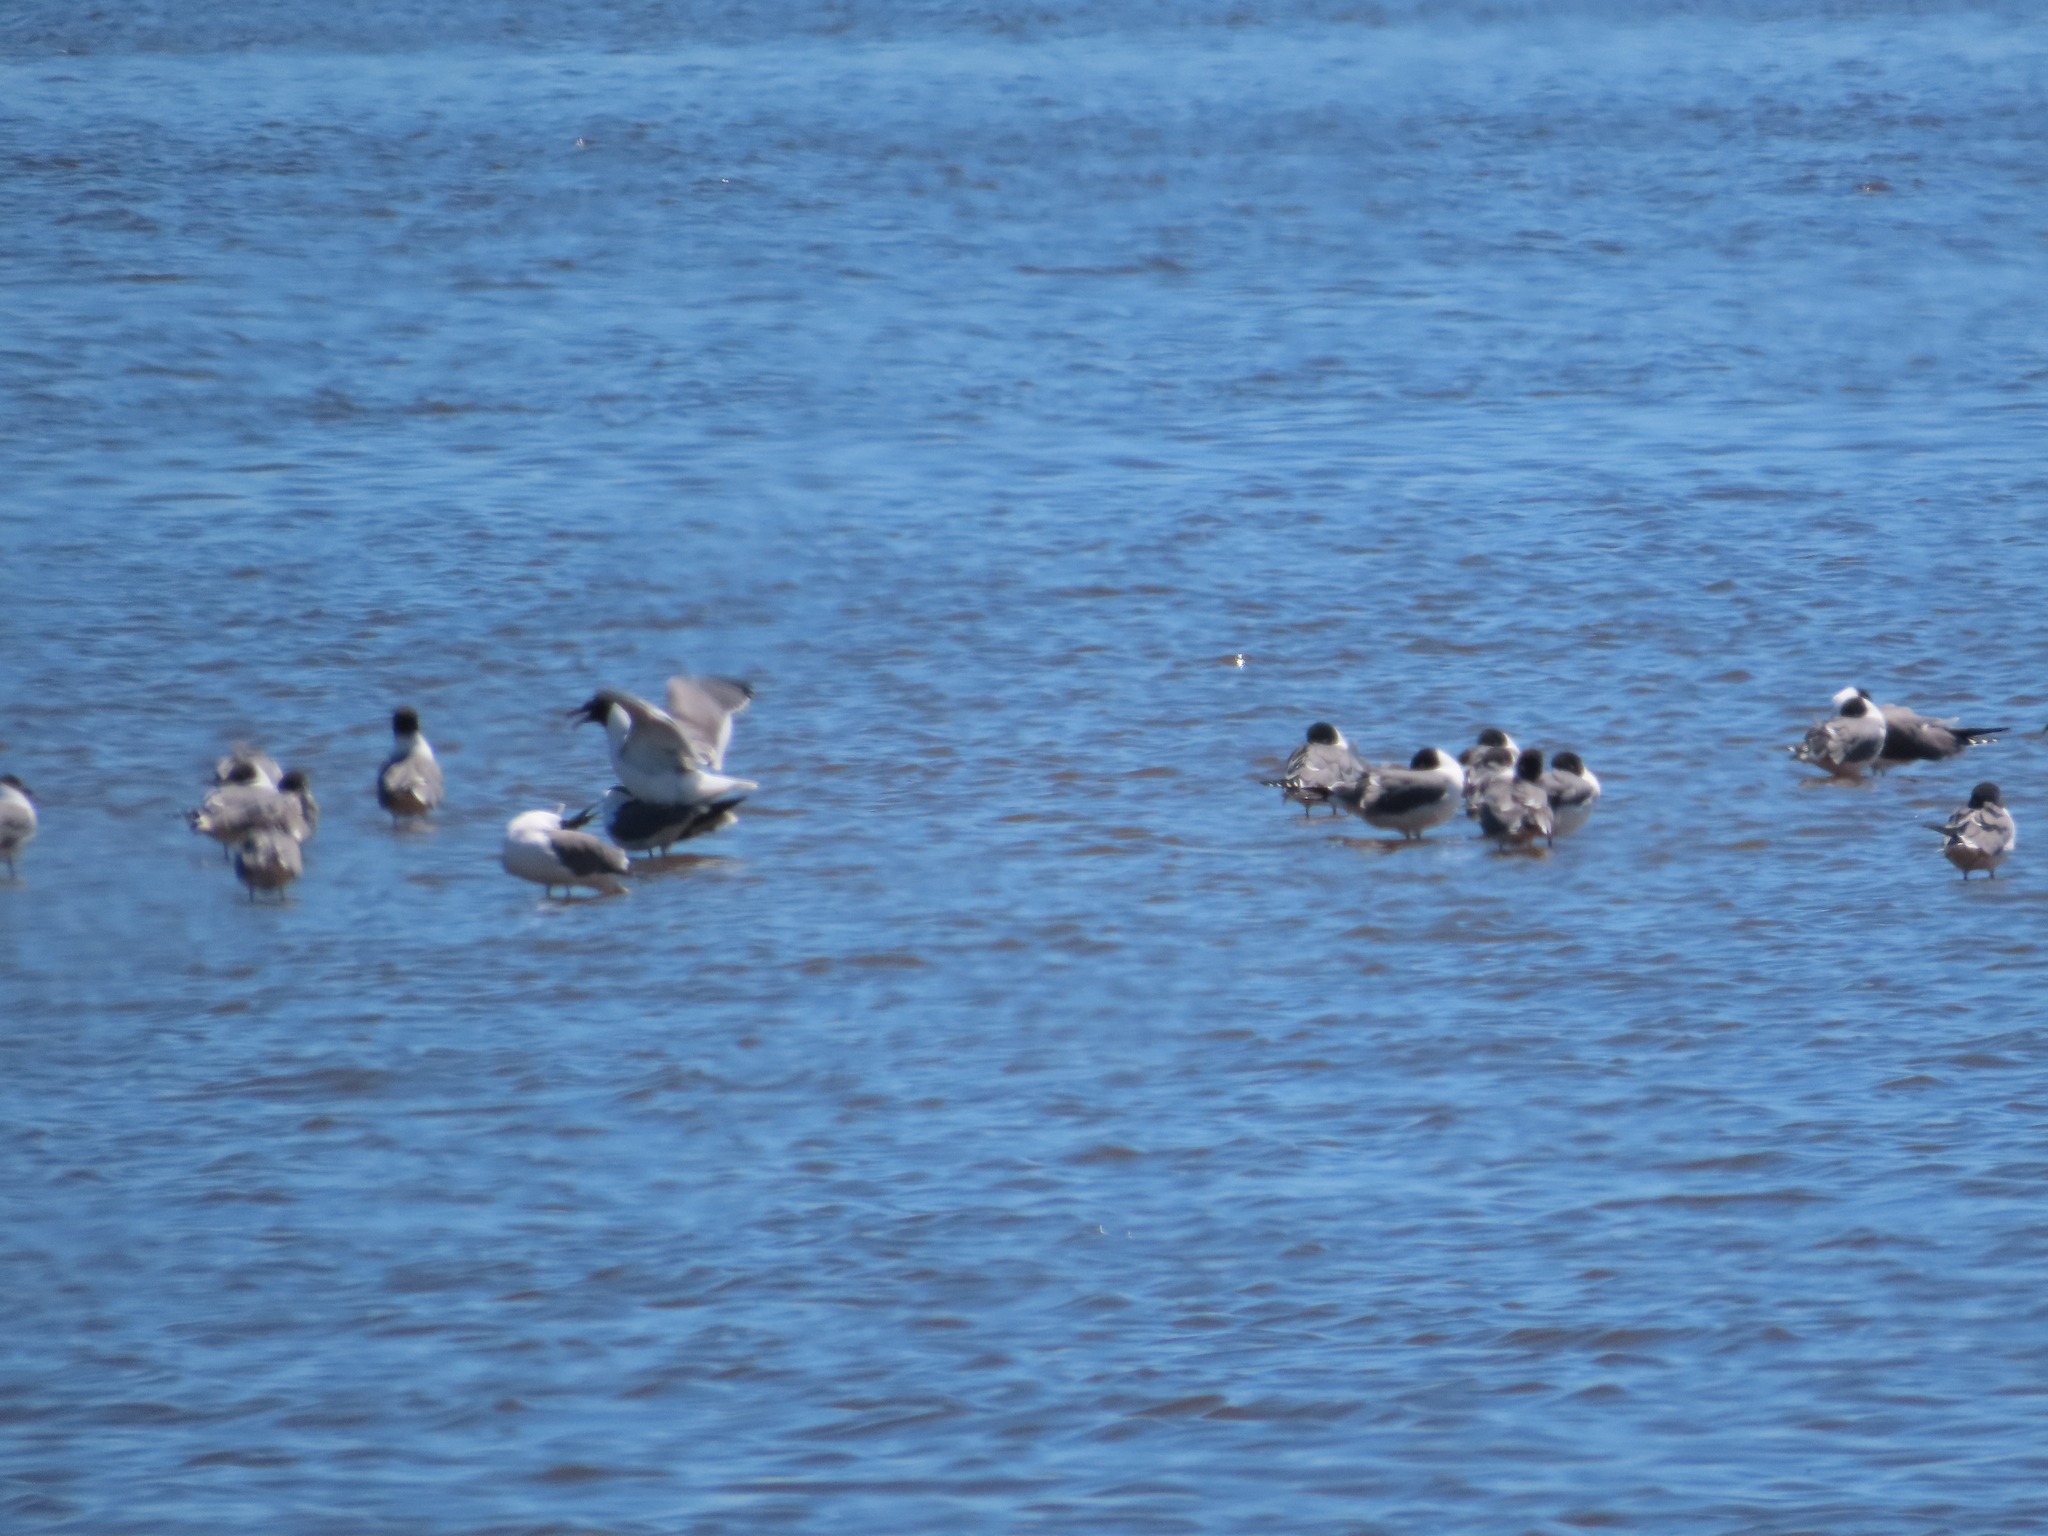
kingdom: Animalia
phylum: Chordata
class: Aves
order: Charadriiformes
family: Laridae
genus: Leucophaeus
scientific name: Leucophaeus atricilla
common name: Laughing gull
